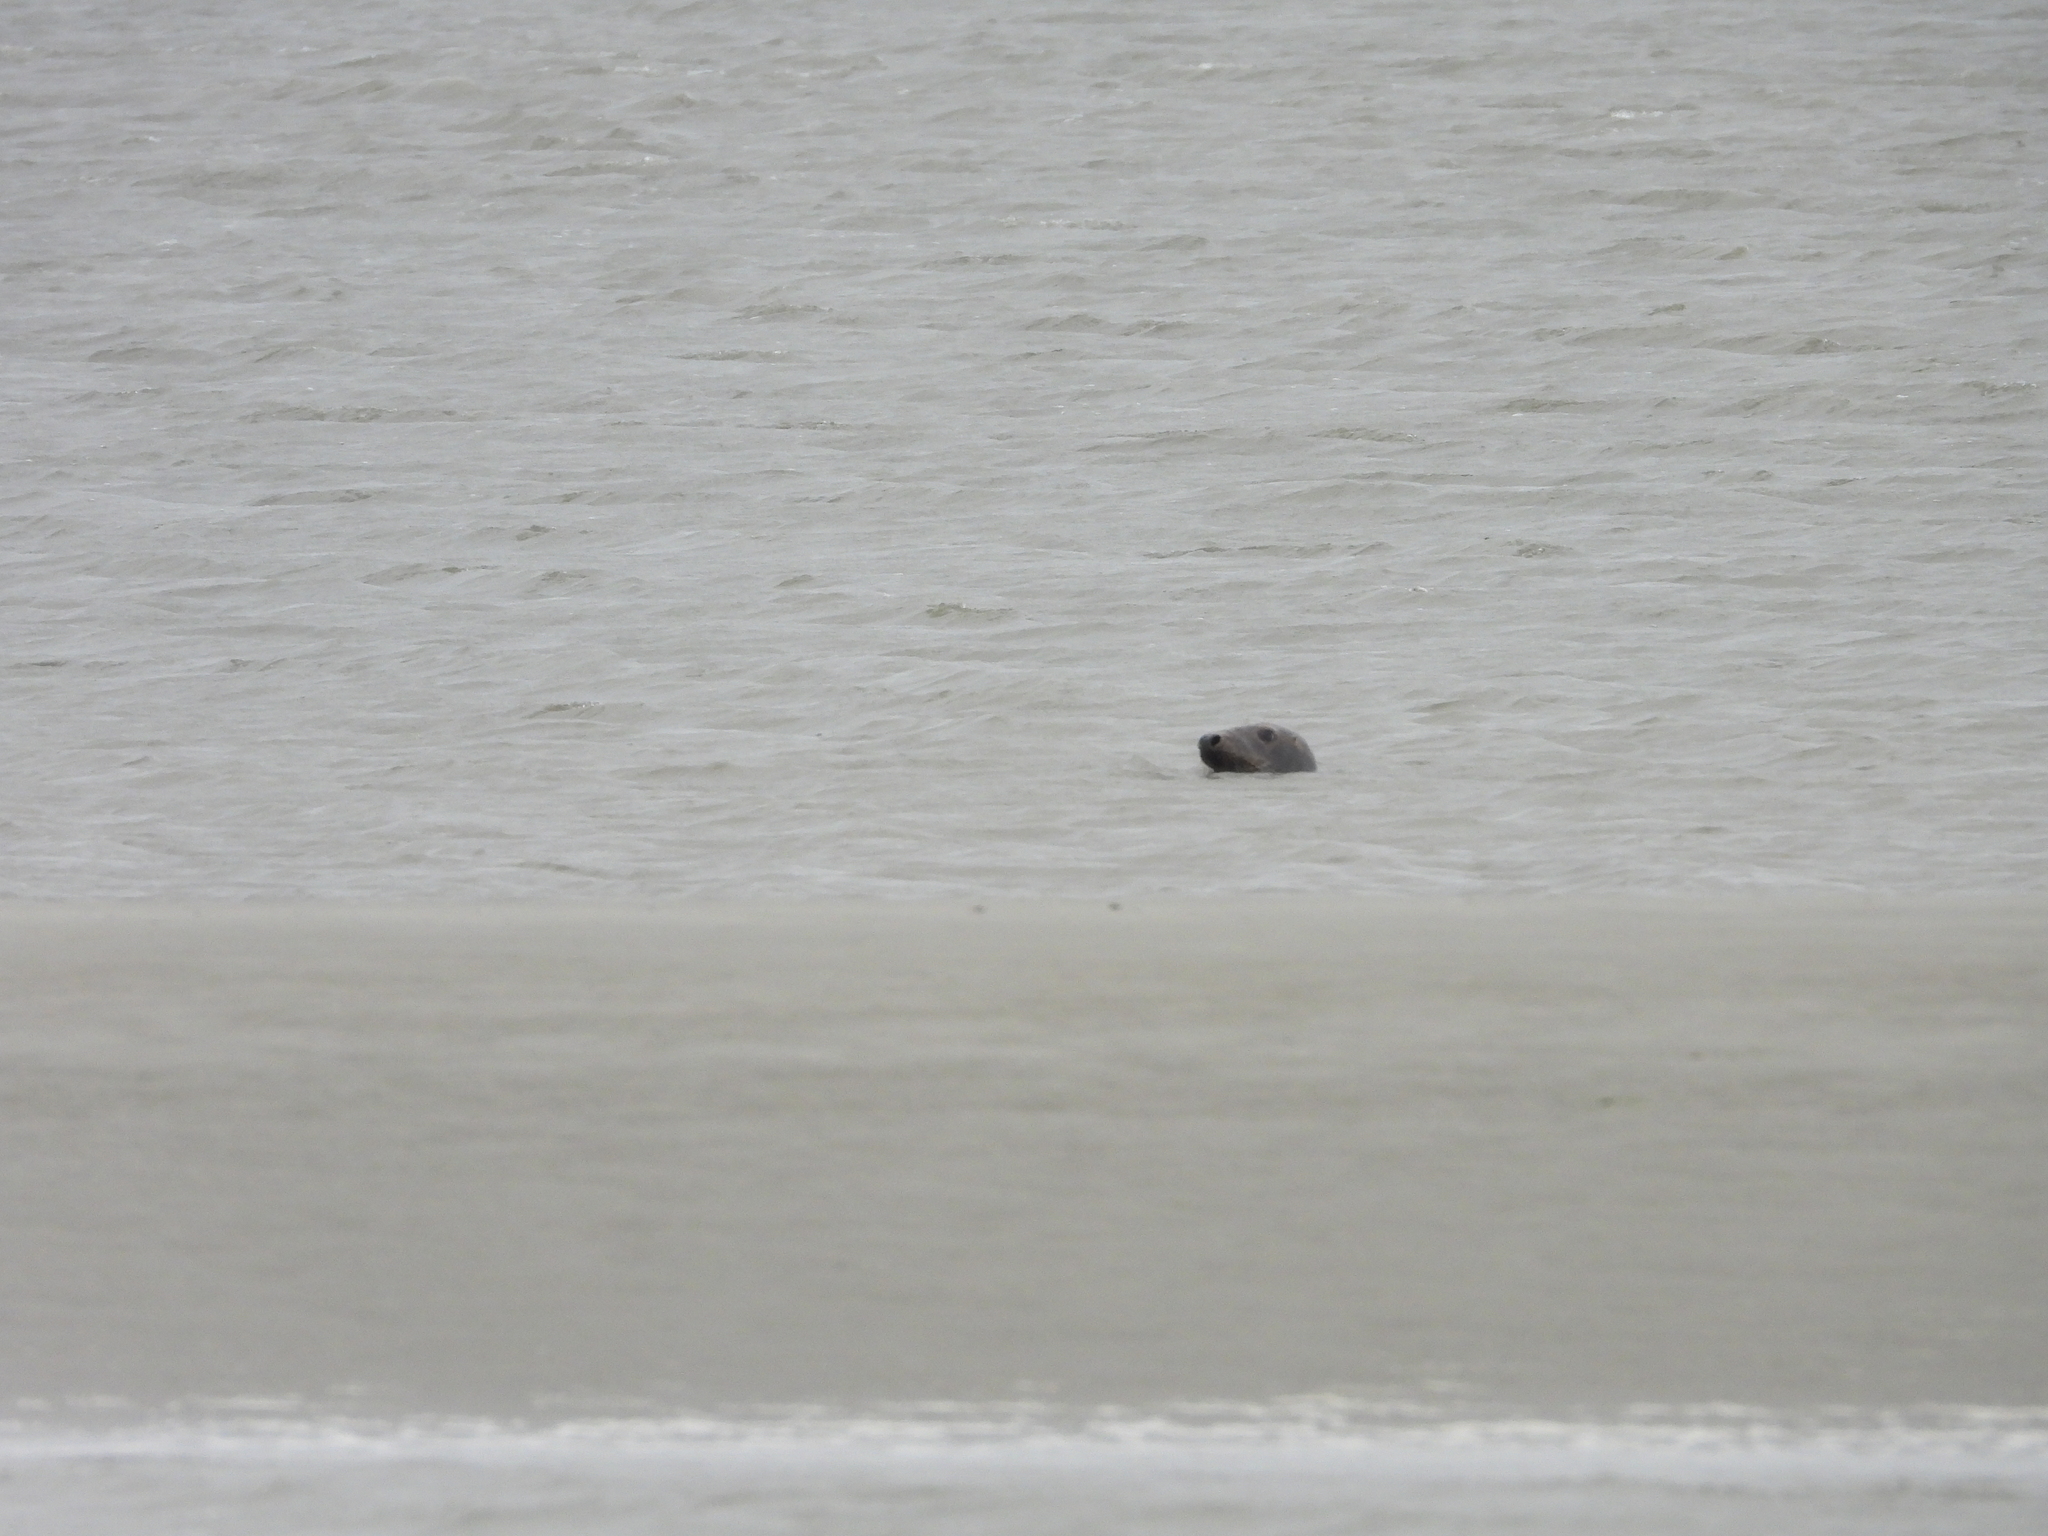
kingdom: Animalia
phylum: Chordata
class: Mammalia
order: Carnivora
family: Phocidae
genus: Halichoerus
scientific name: Halichoerus grypus
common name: Grey seal
